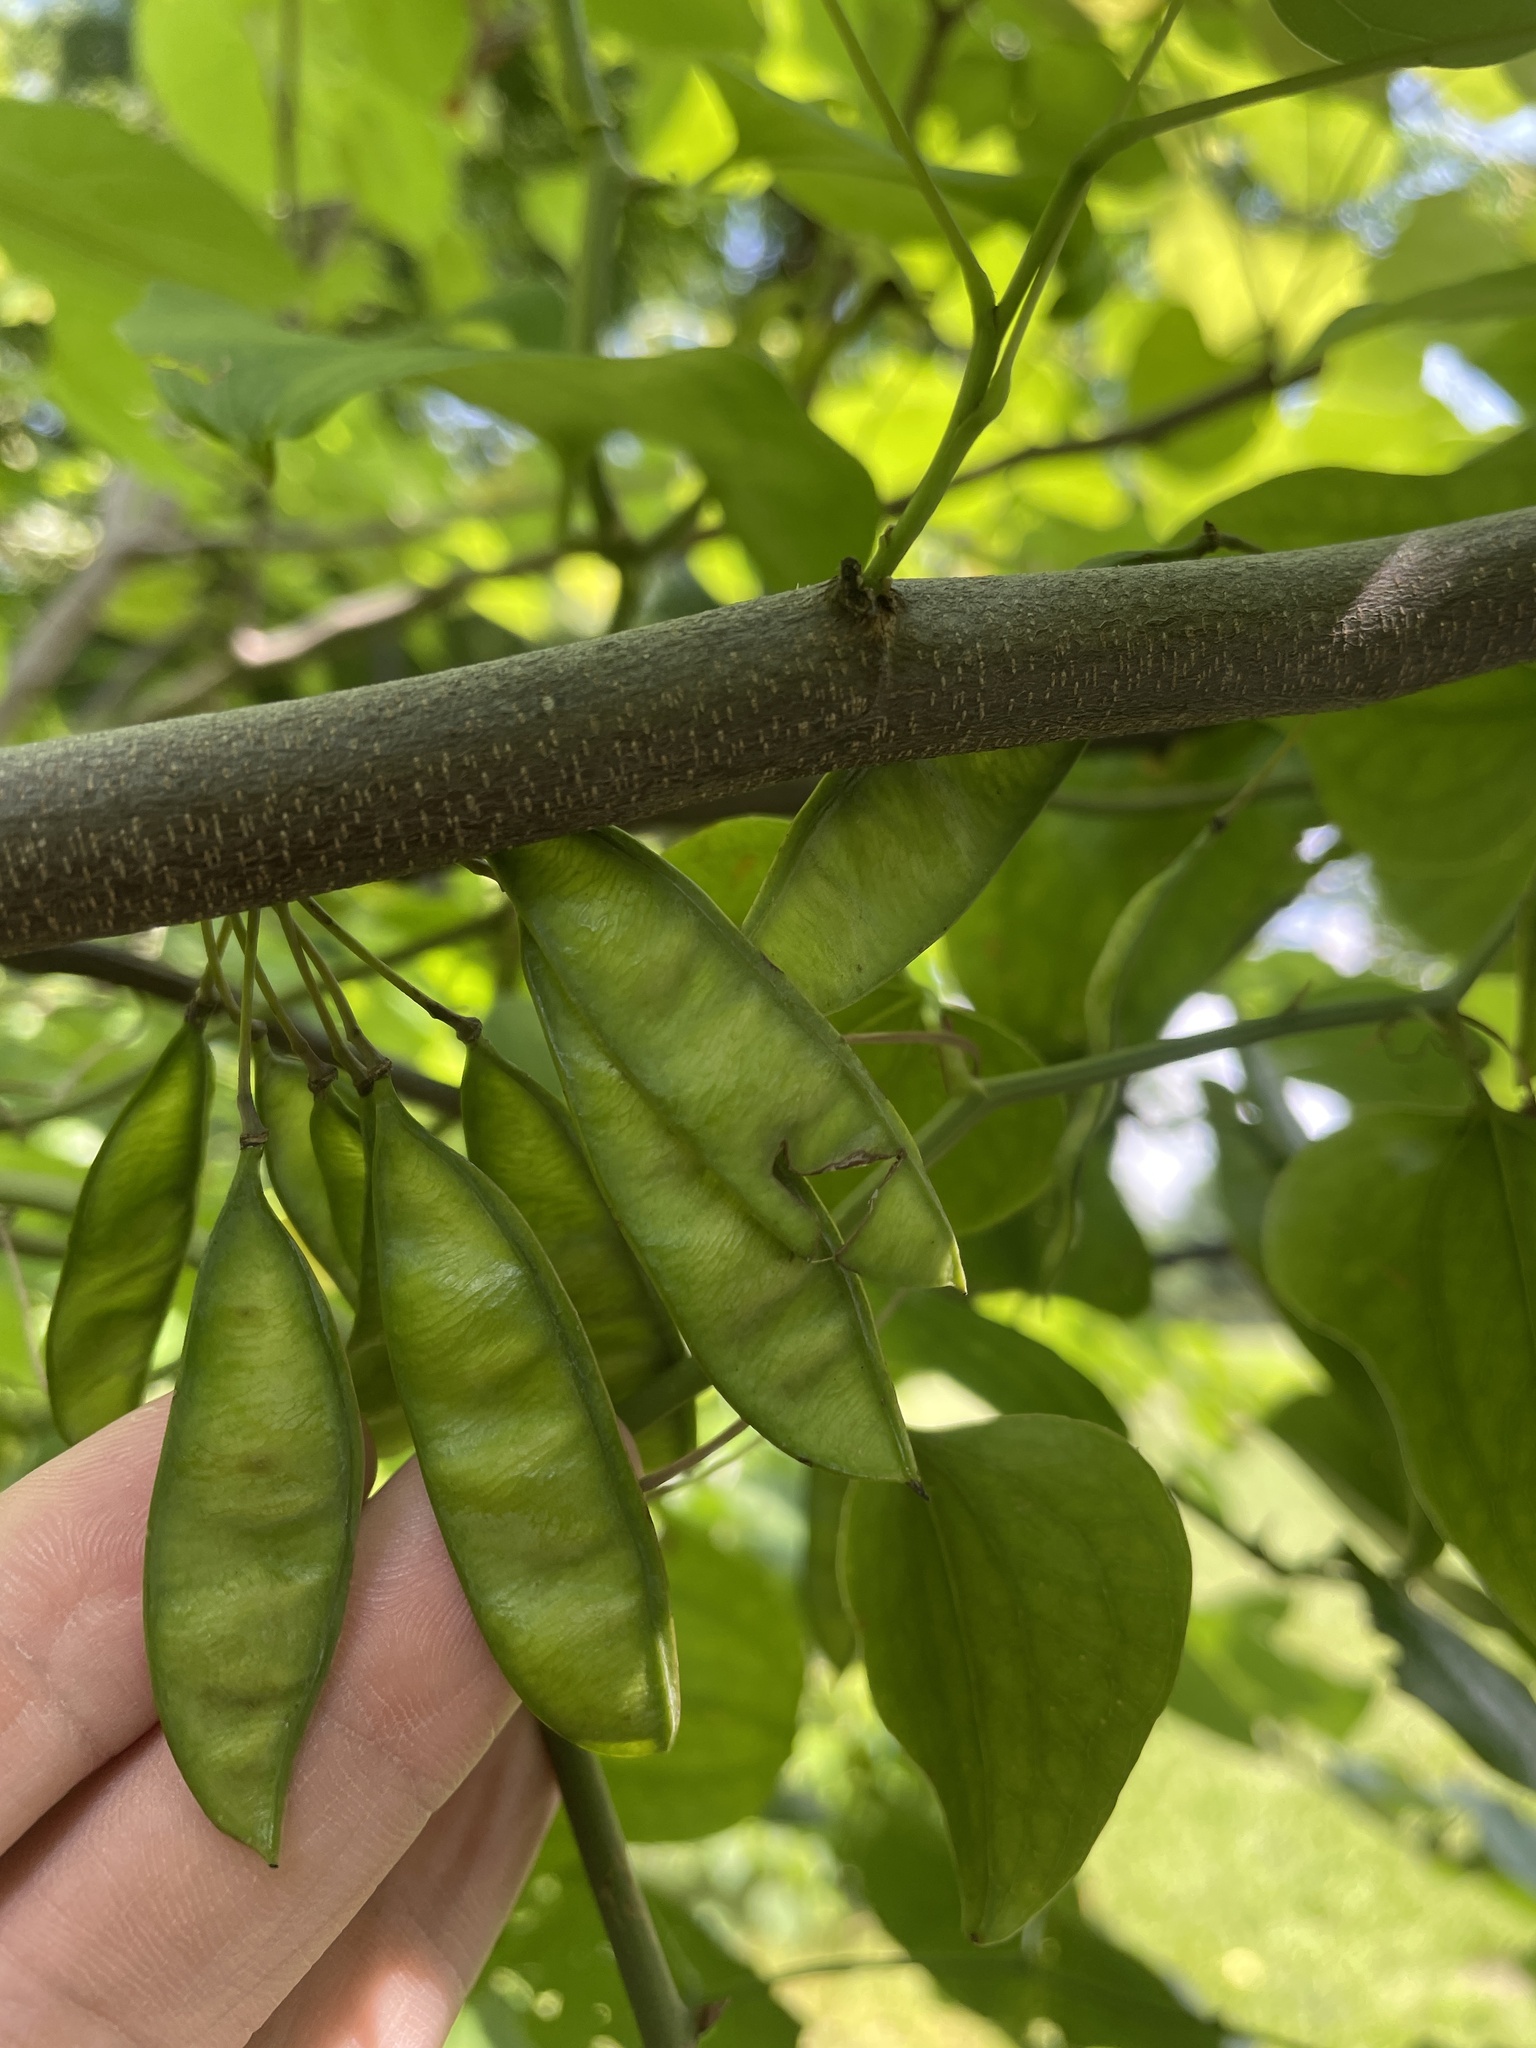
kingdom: Plantae
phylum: Tracheophyta
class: Magnoliopsida
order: Fabales
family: Fabaceae
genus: Cercis
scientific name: Cercis canadensis
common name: Eastern redbud
